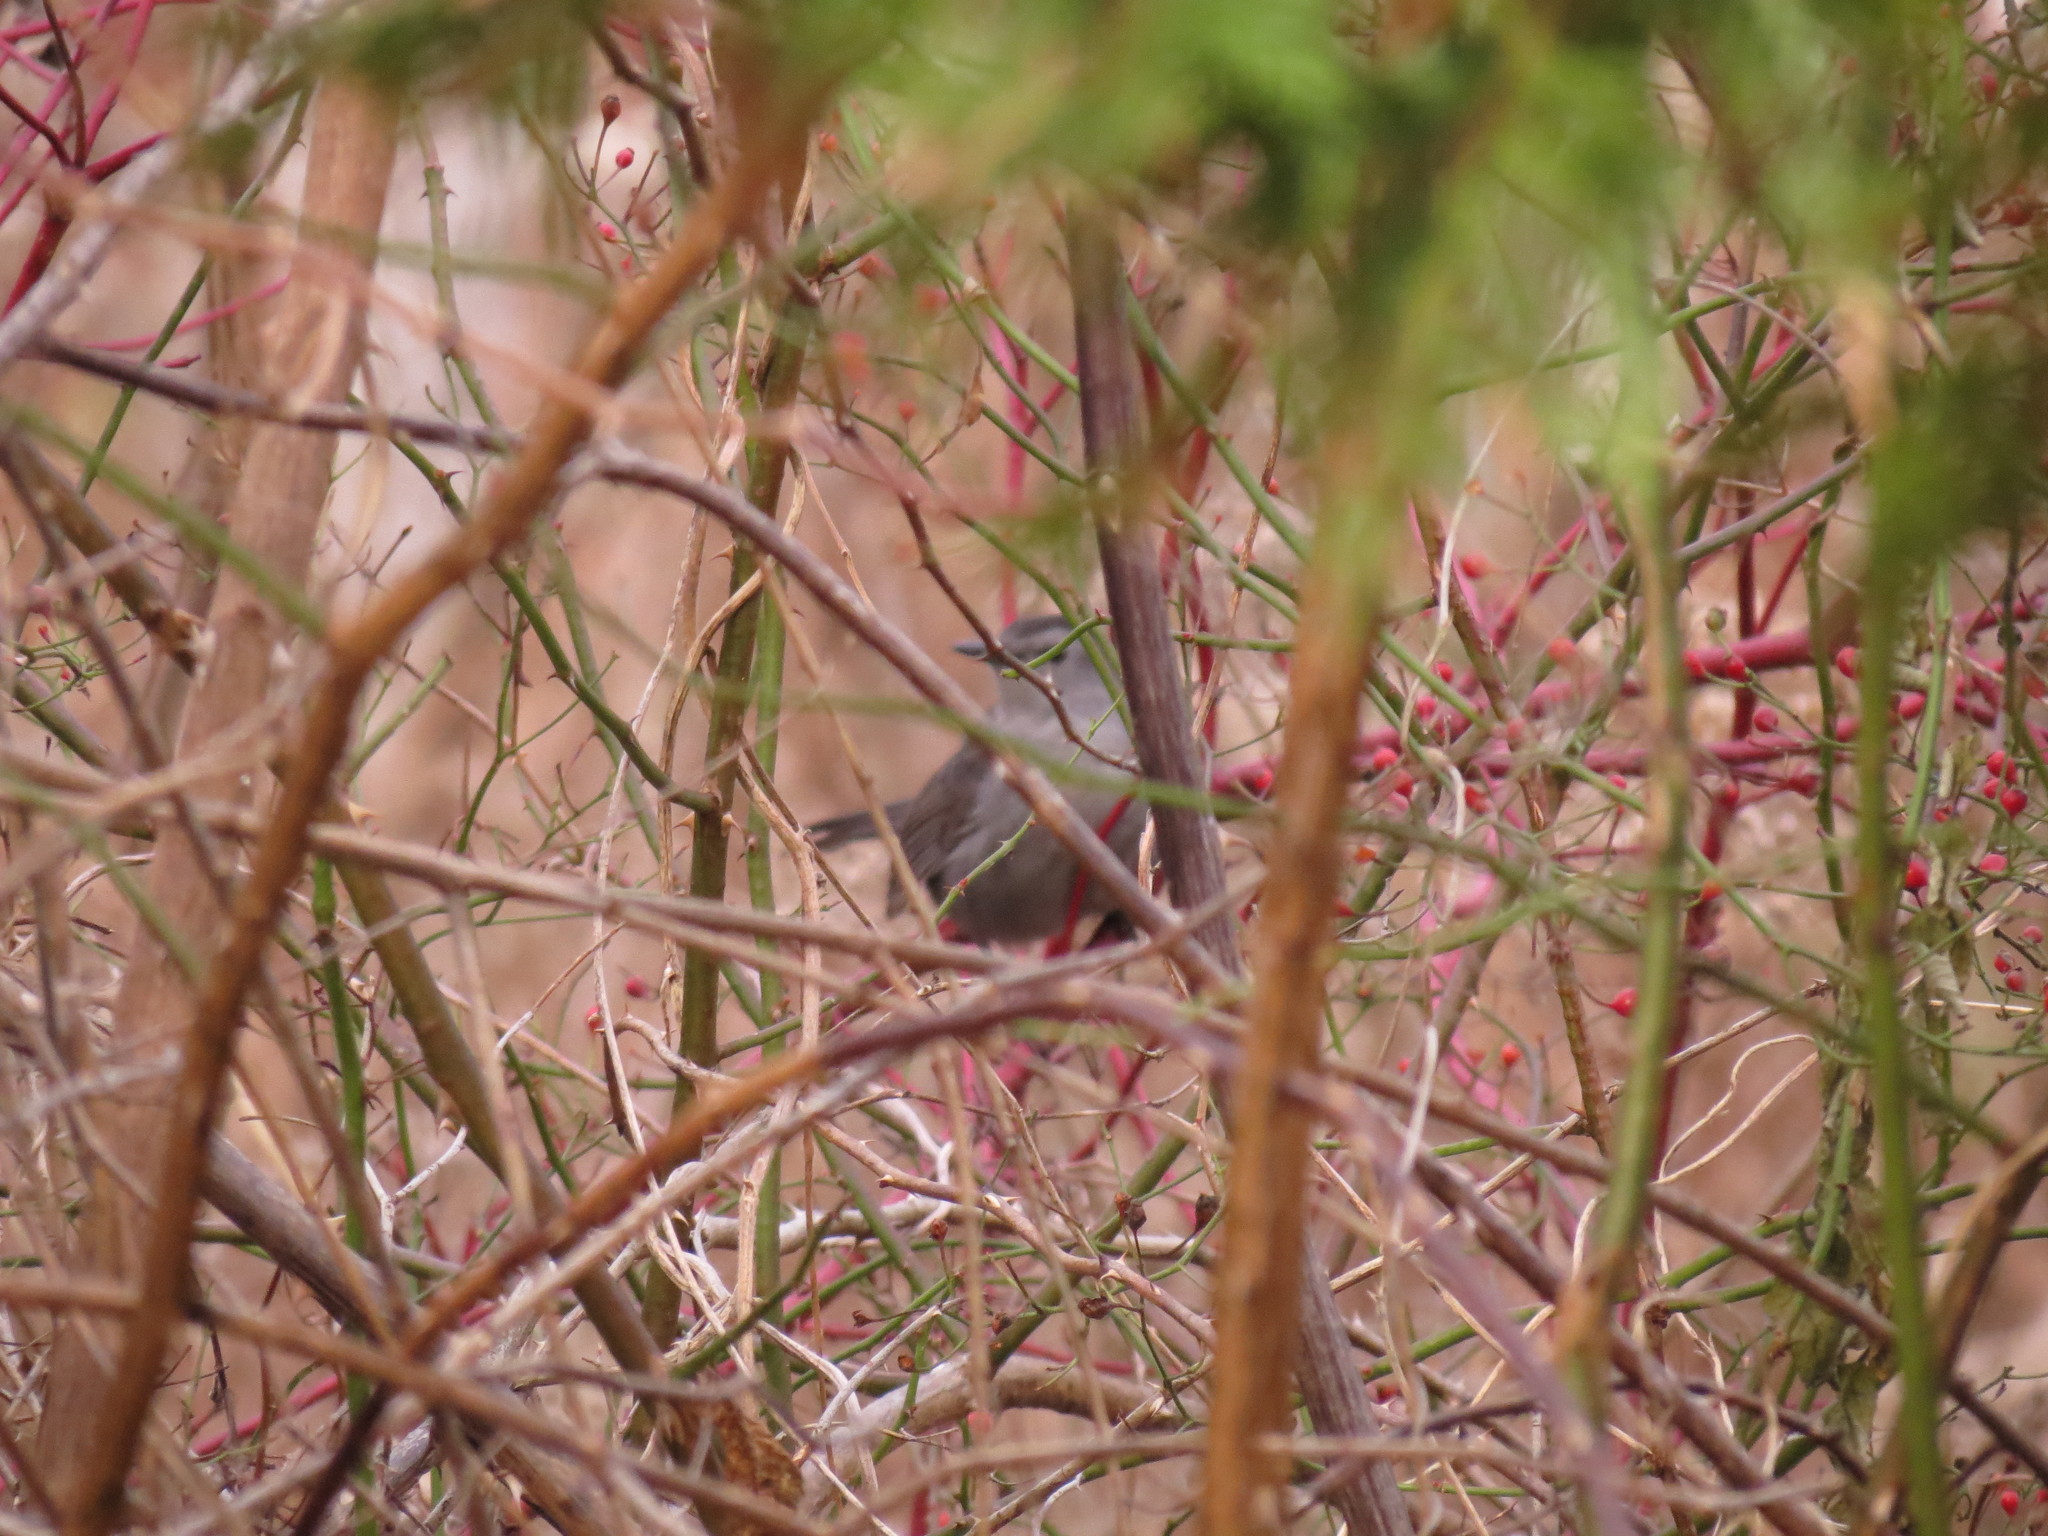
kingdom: Plantae
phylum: Tracheophyta
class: Magnoliopsida
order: Rosales
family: Rosaceae
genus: Rosa
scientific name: Rosa multiflora
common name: Multiflora rose
